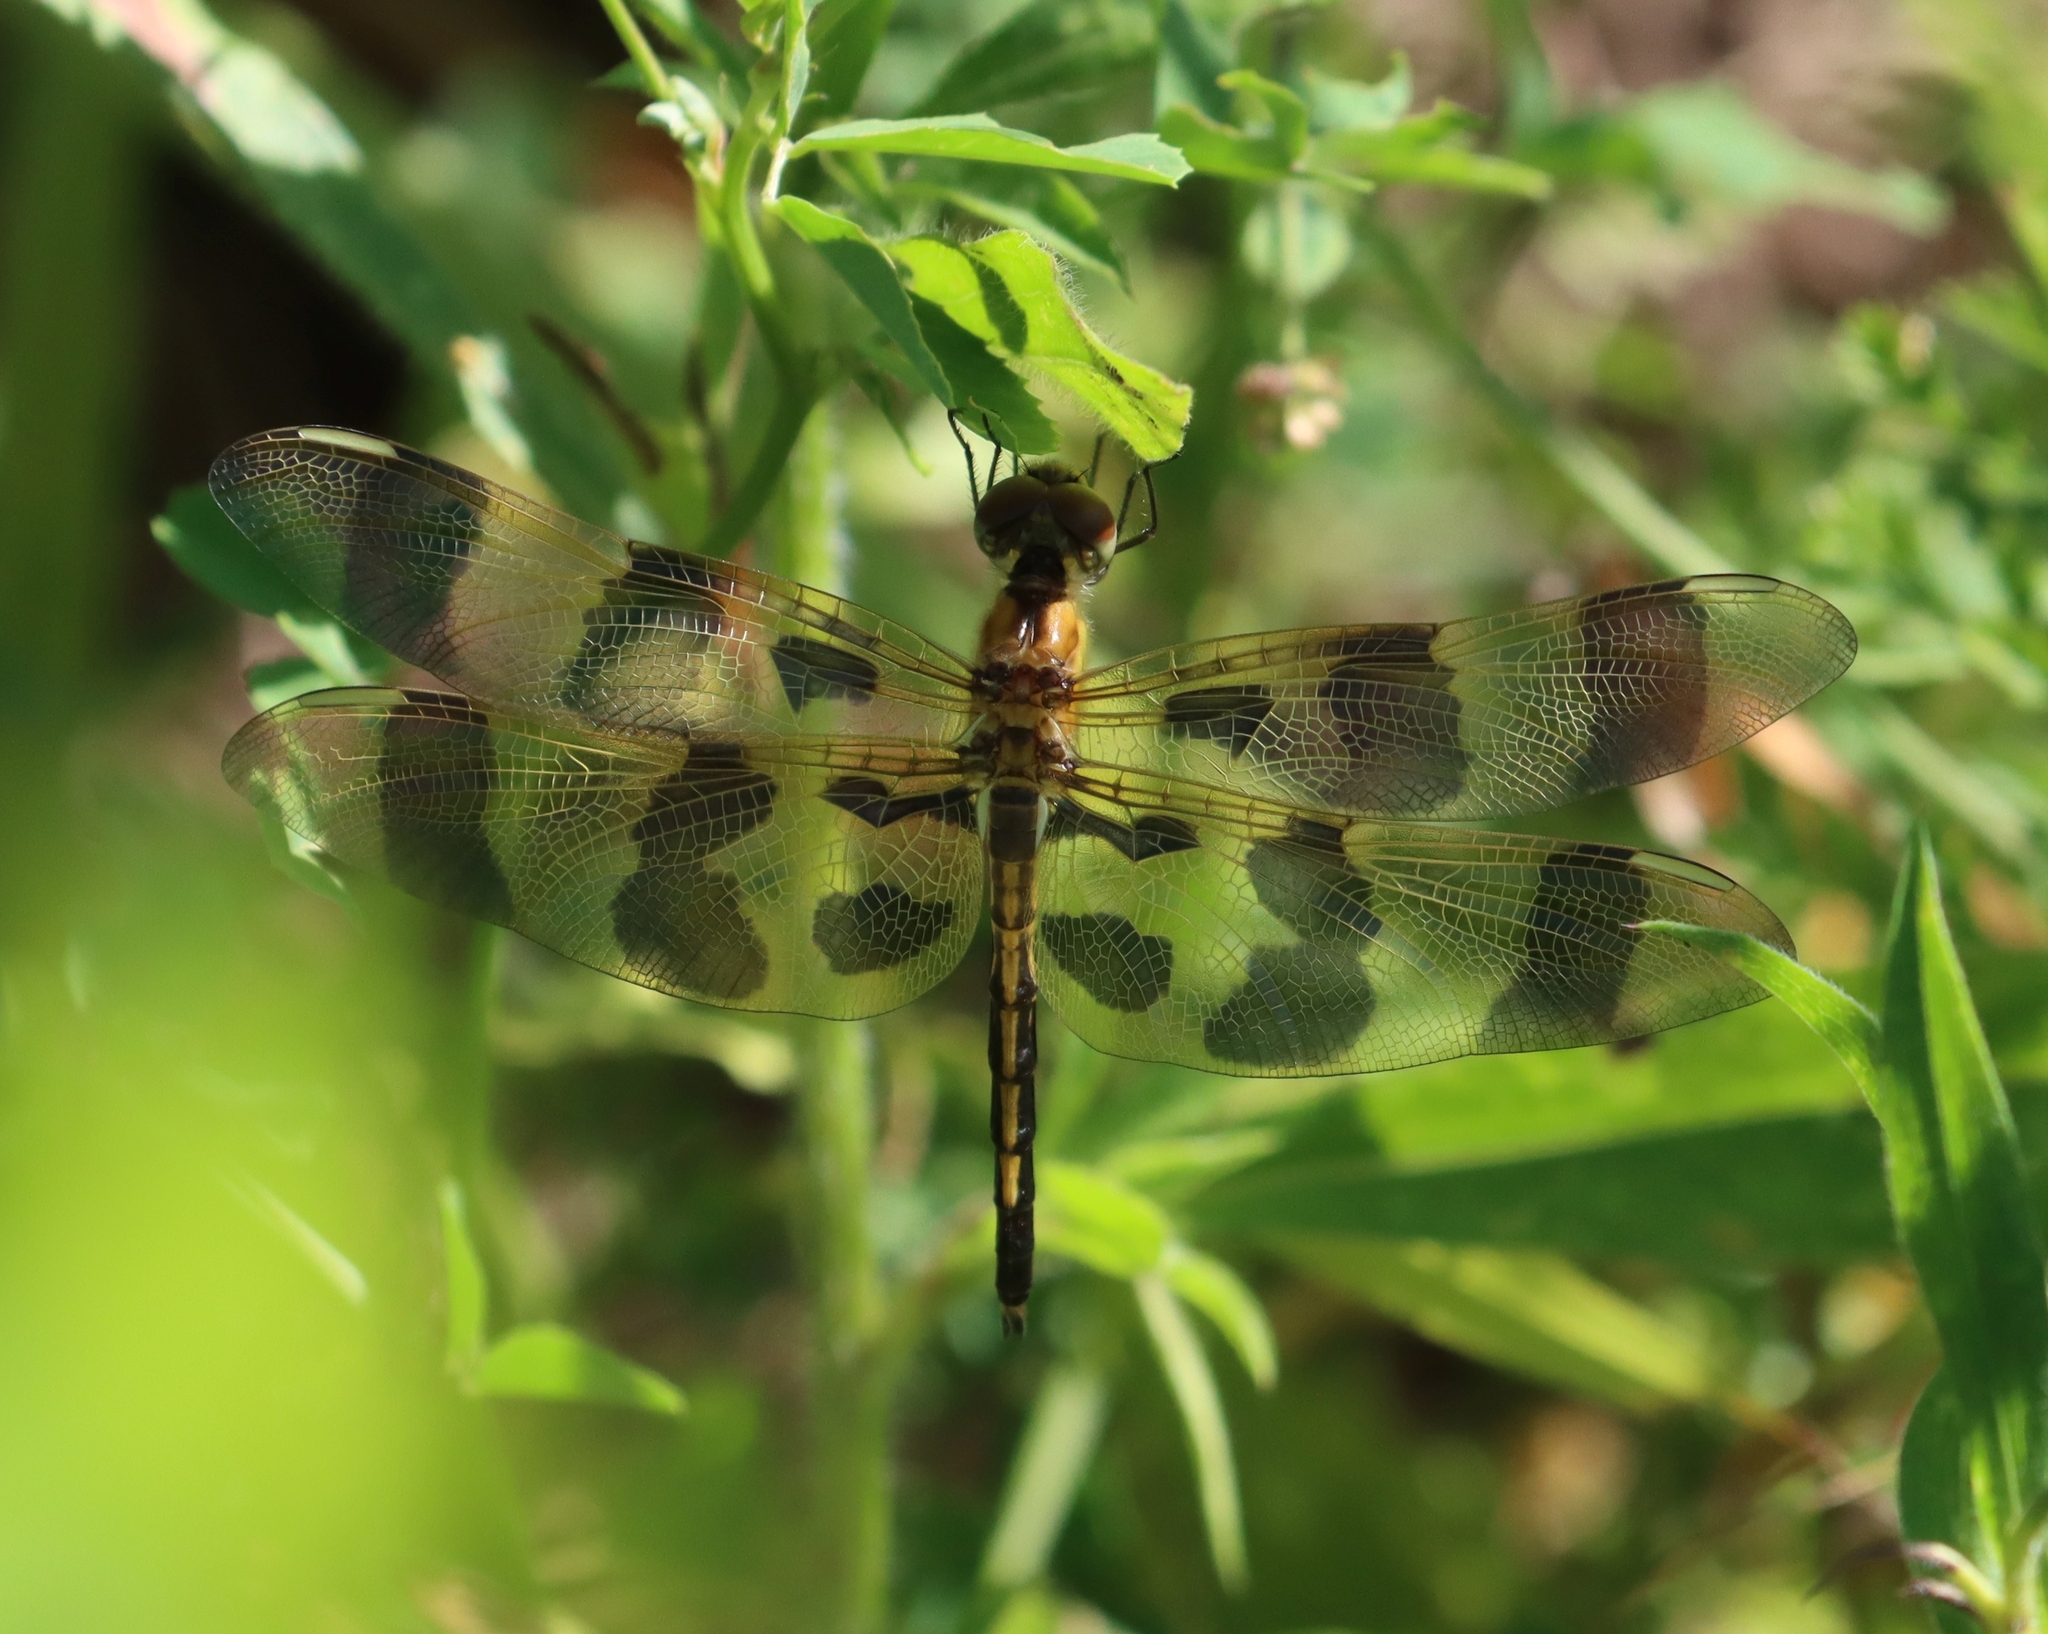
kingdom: Animalia
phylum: Arthropoda
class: Insecta
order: Odonata
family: Libellulidae
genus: Celithemis
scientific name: Celithemis eponina
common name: Halloween pennant
